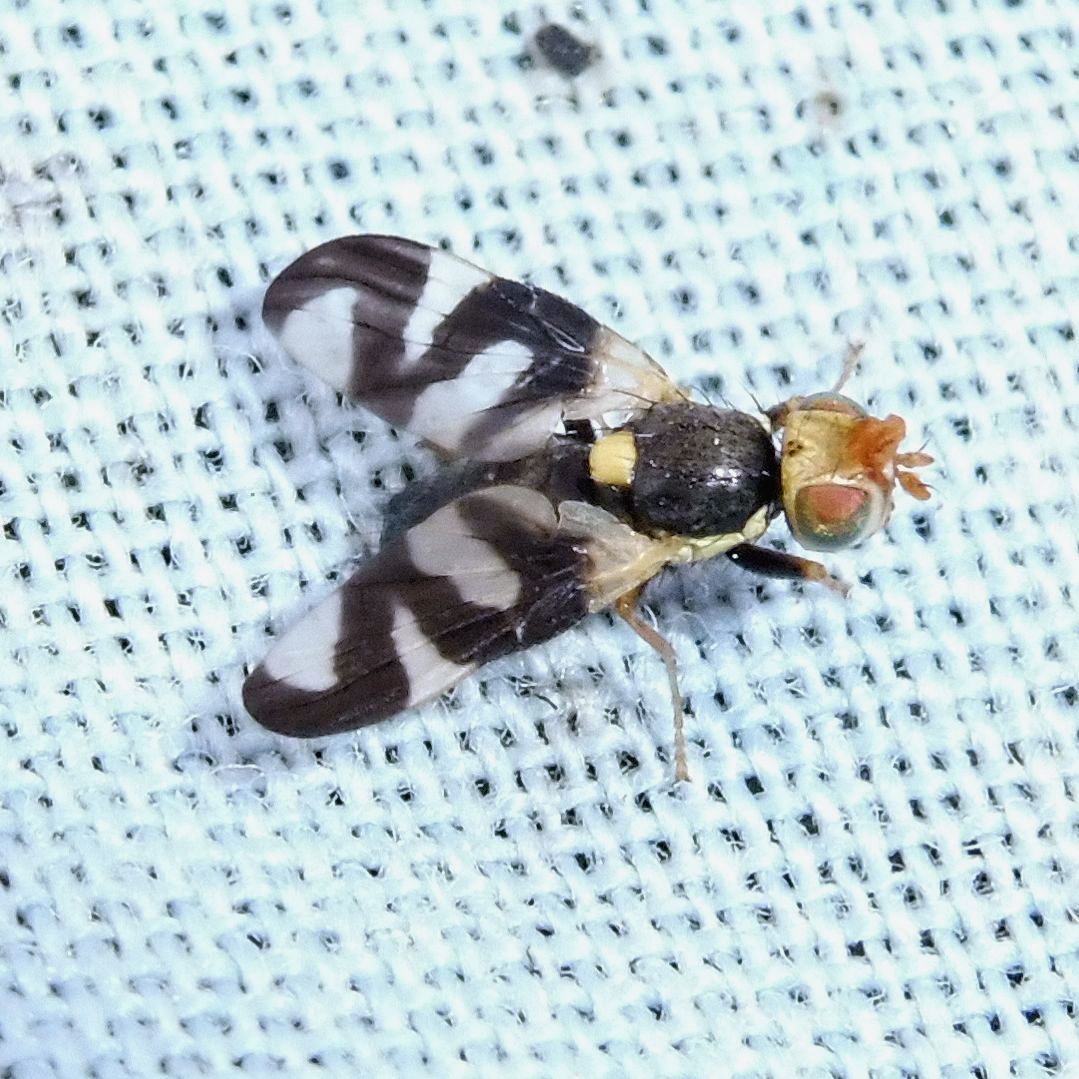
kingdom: Animalia
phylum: Arthropoda
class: Insecta
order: Diptera
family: Tephritidae
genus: Urophora
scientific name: Urophora cardui
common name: Fruit fly
